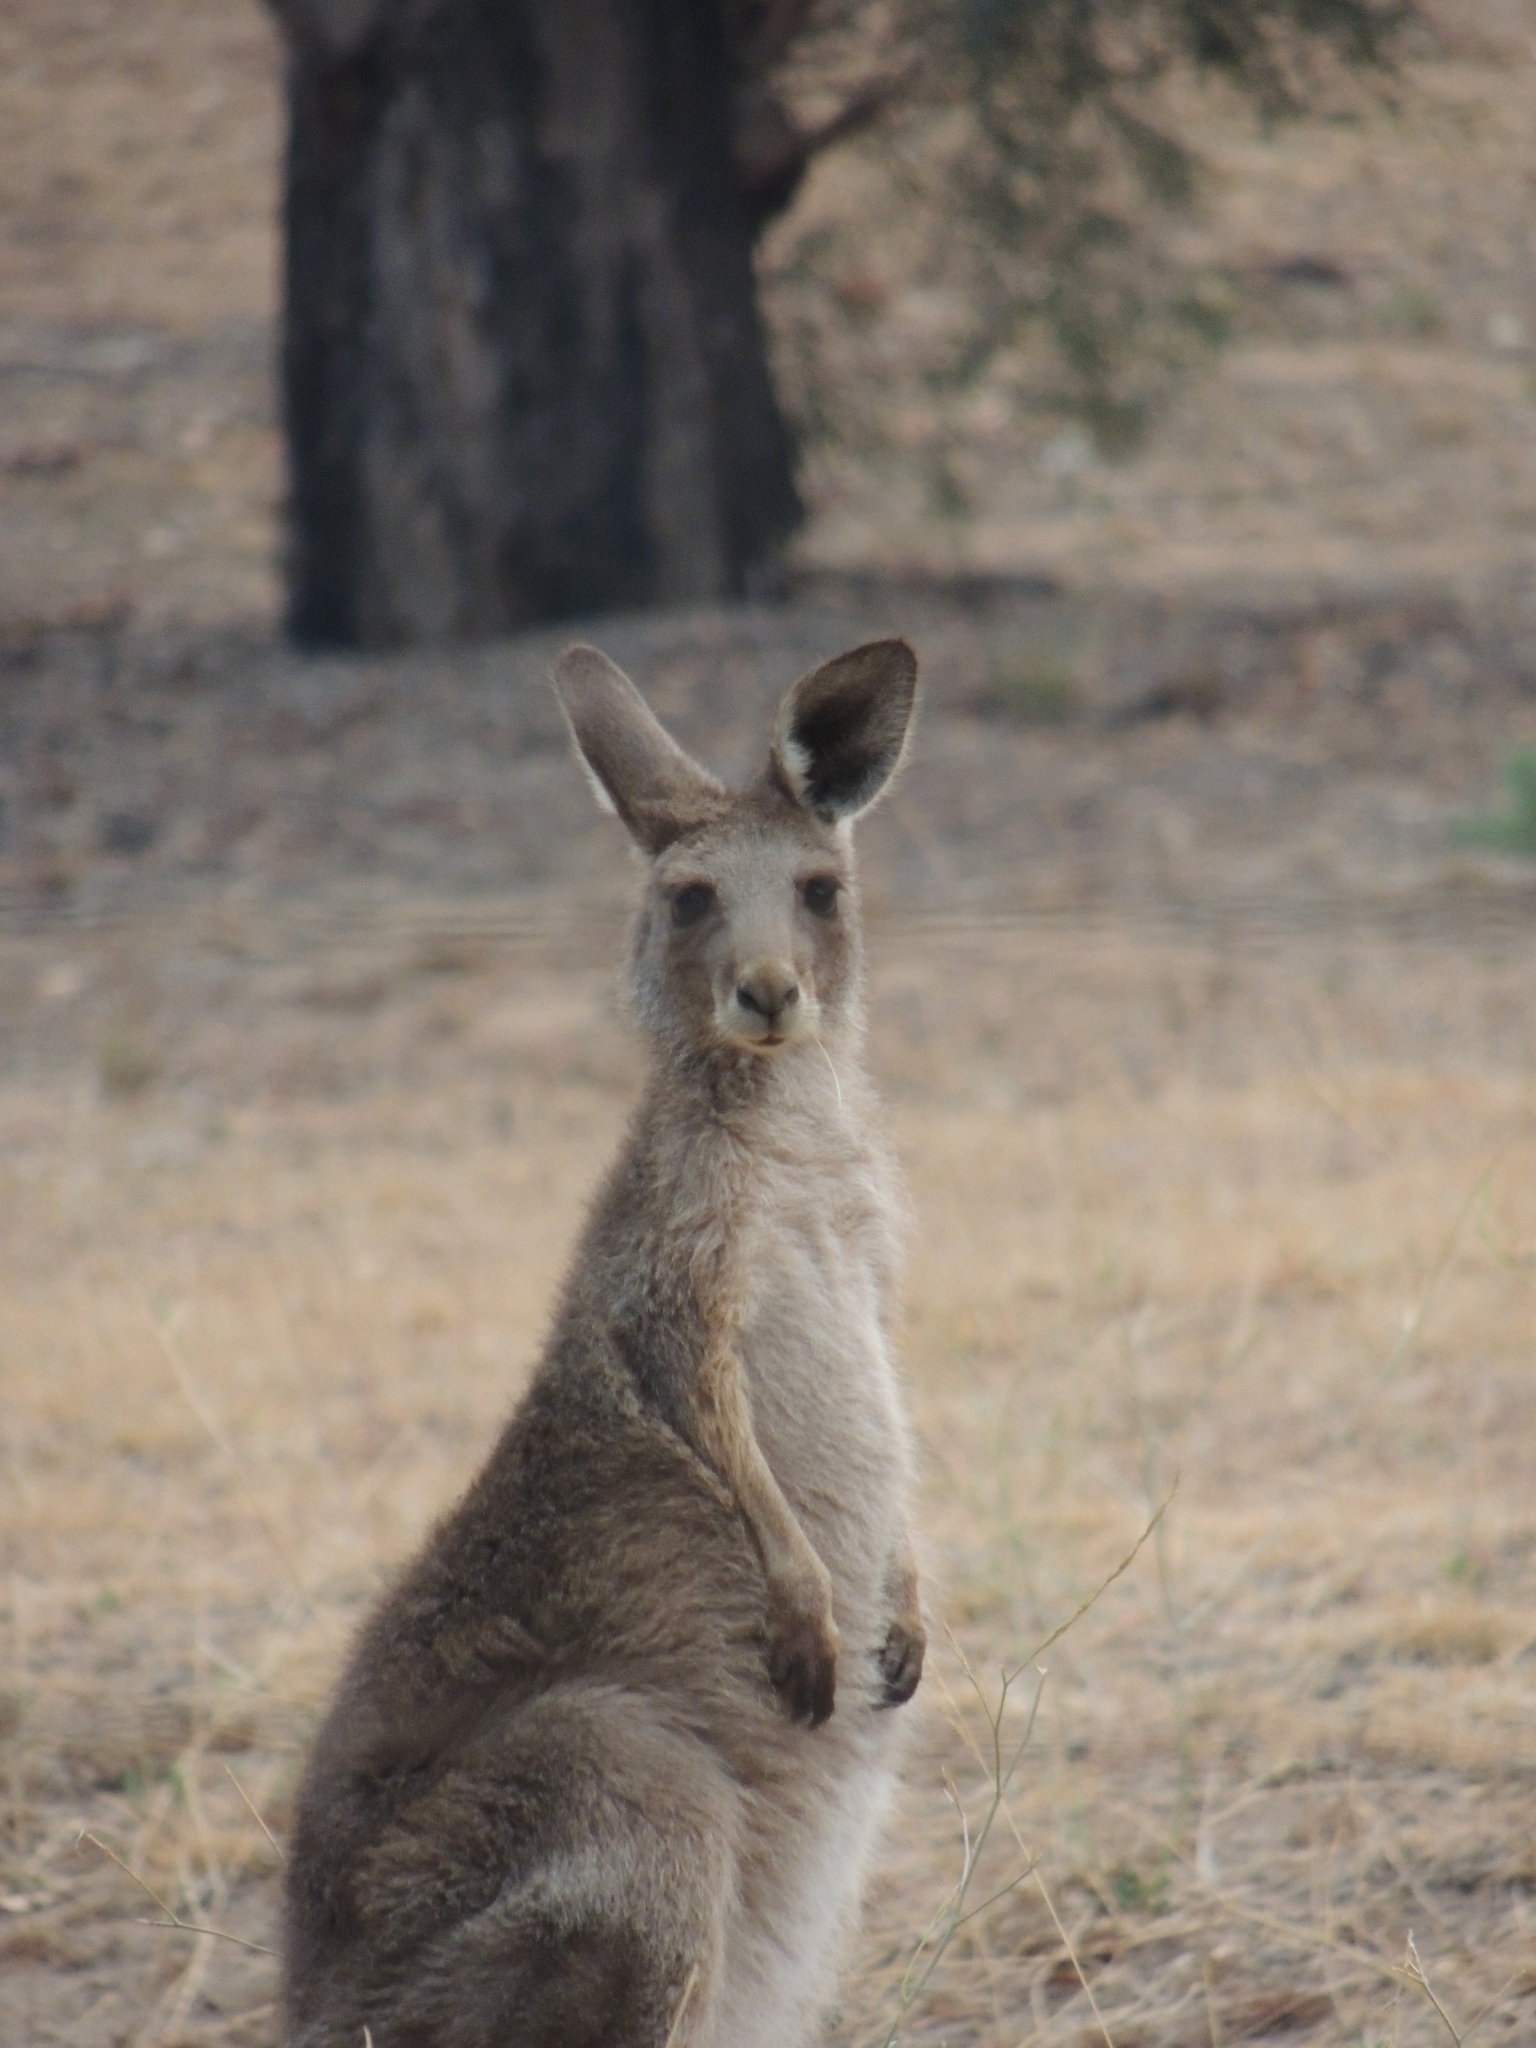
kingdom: Animalia
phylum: Chordata
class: Mammalia
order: Diprotodontia
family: Macropodidae
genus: Macropus
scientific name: Macropus giganteus
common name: Eastern grey kangaroo
